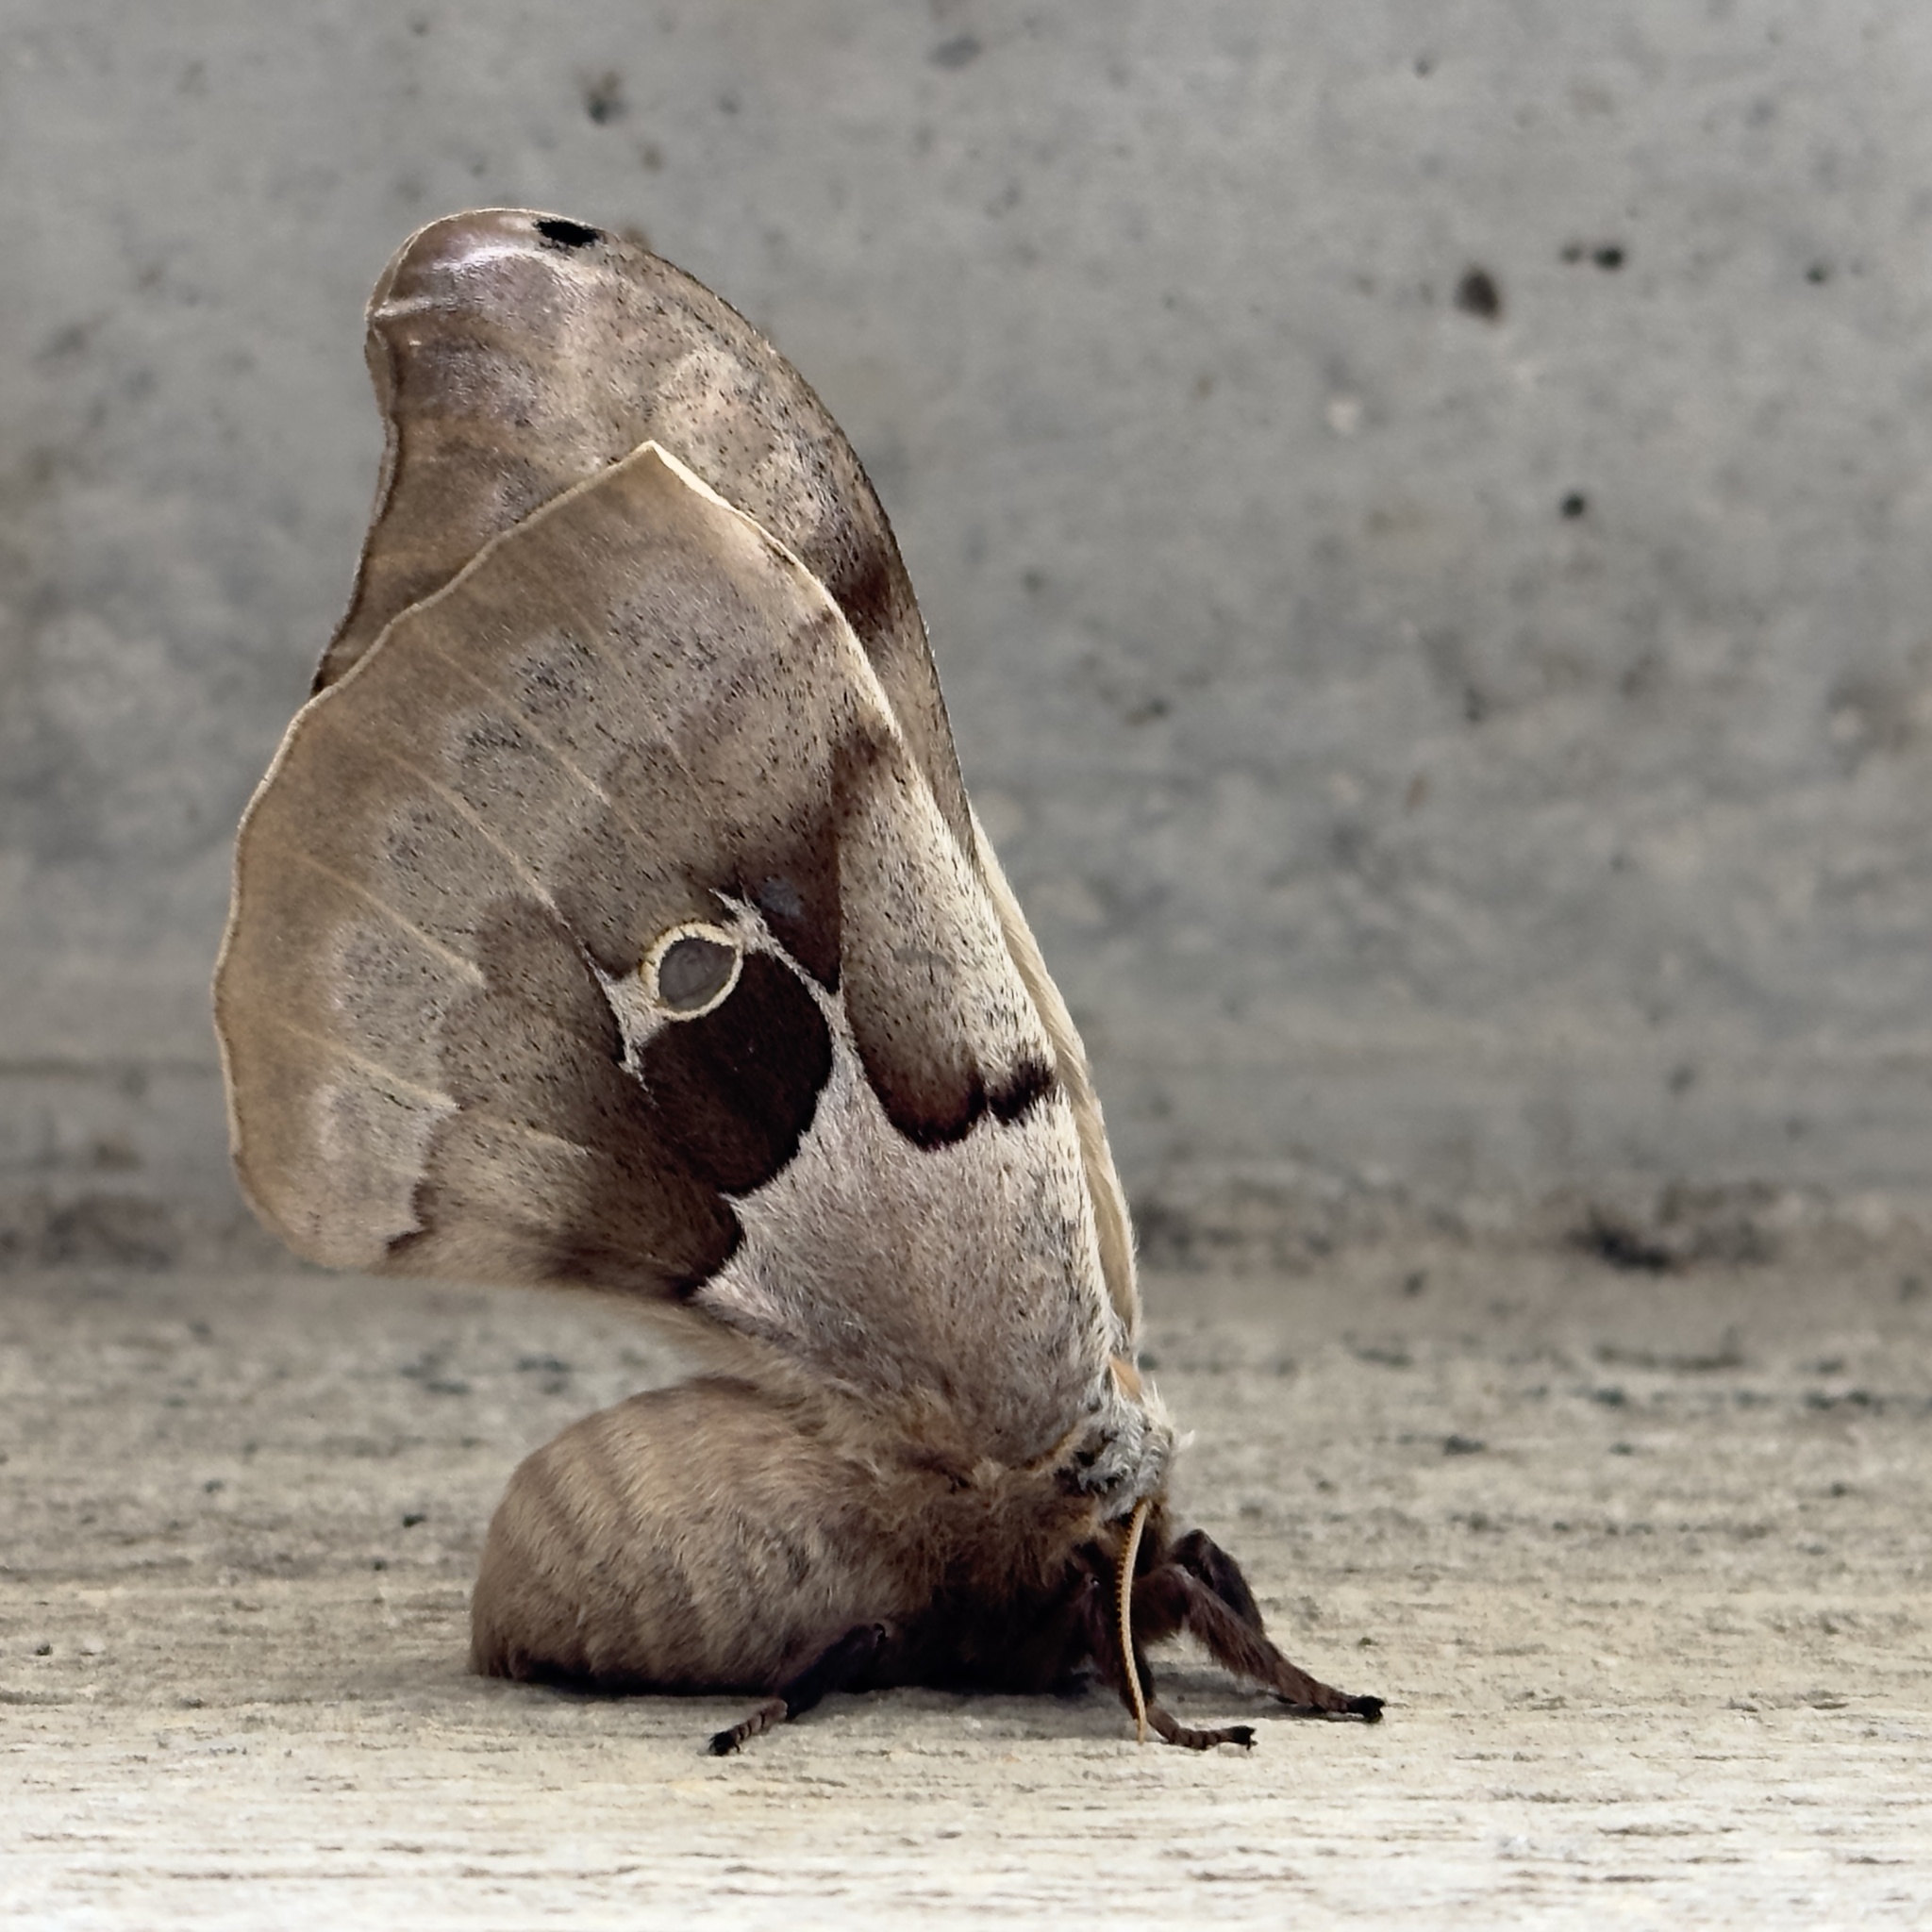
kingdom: Animalia
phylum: Arthropoda
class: Insecta
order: Lepidoptera
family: Saturniidae
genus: Antheraea
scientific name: Antheraea polyphemus
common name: Polyphemus moth
